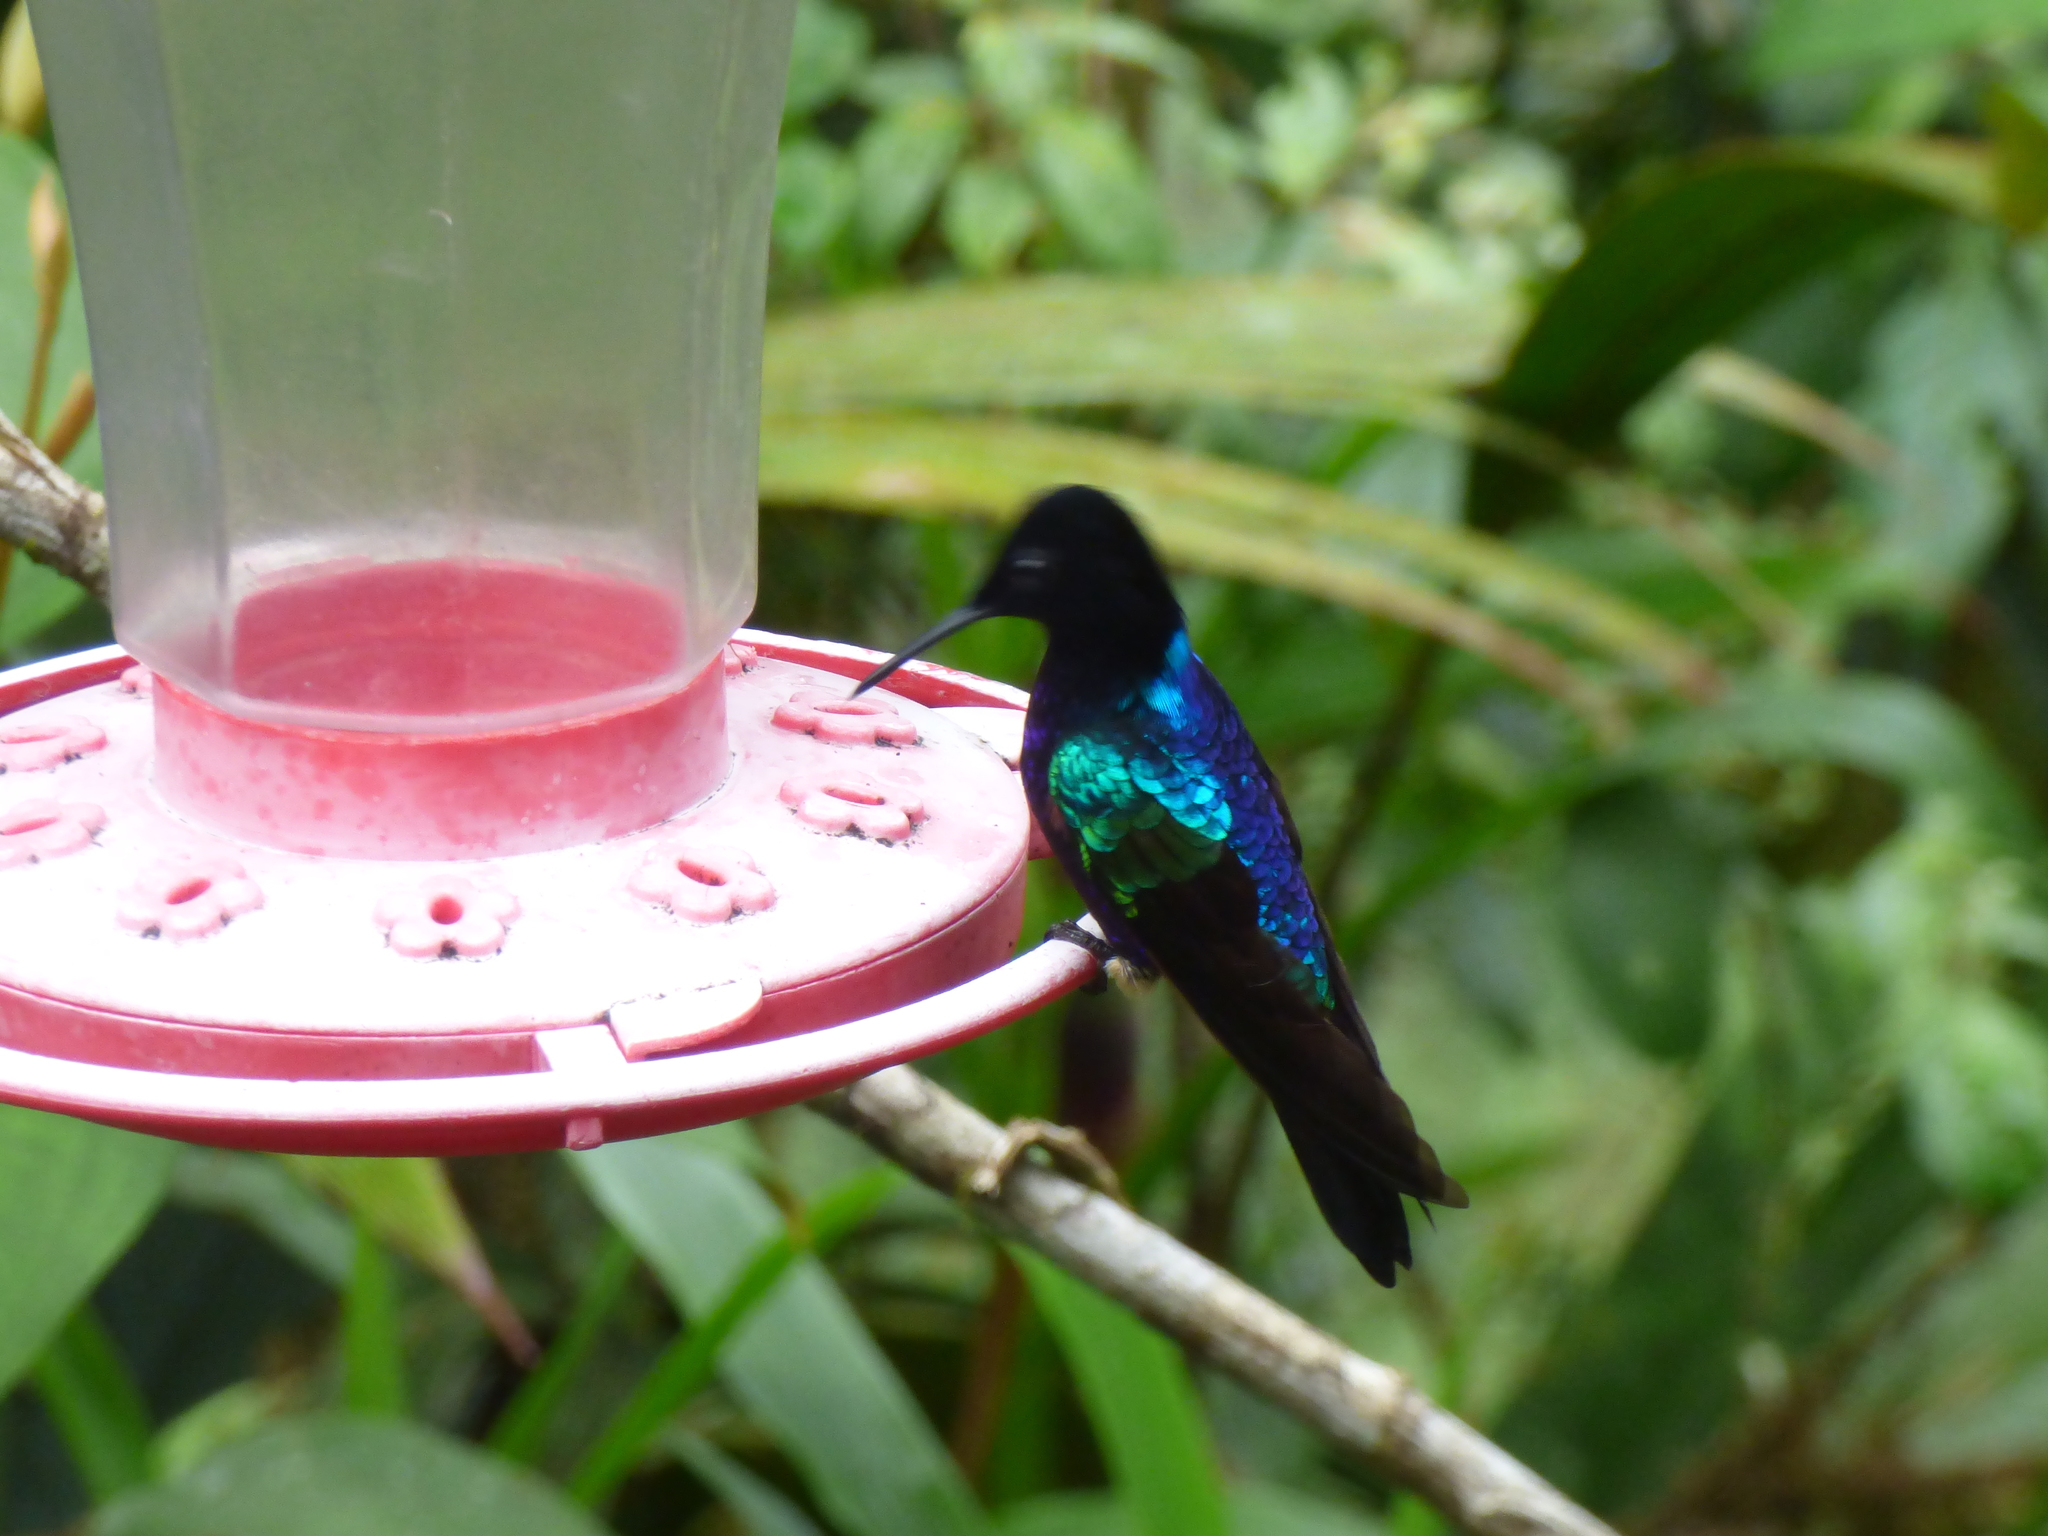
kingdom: Animalia
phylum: Chordata
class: Aves
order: Apodiformes
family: Trochilidae
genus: Boissonneaua
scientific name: Boissonneaua jardini
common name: Velvet-purple coronet
